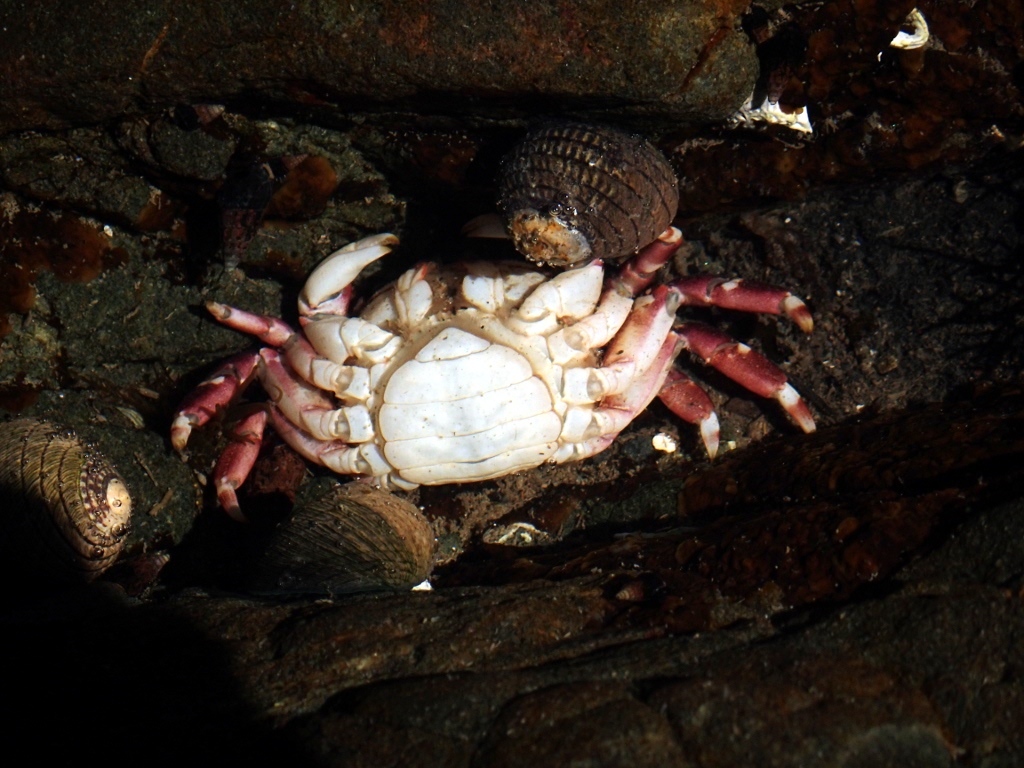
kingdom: Animalia
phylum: Arthropoda
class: Malacostraca
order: Decapoda
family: Varunidae
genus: Hemigrapsus
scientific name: Hemigrapsus sexdentatus
